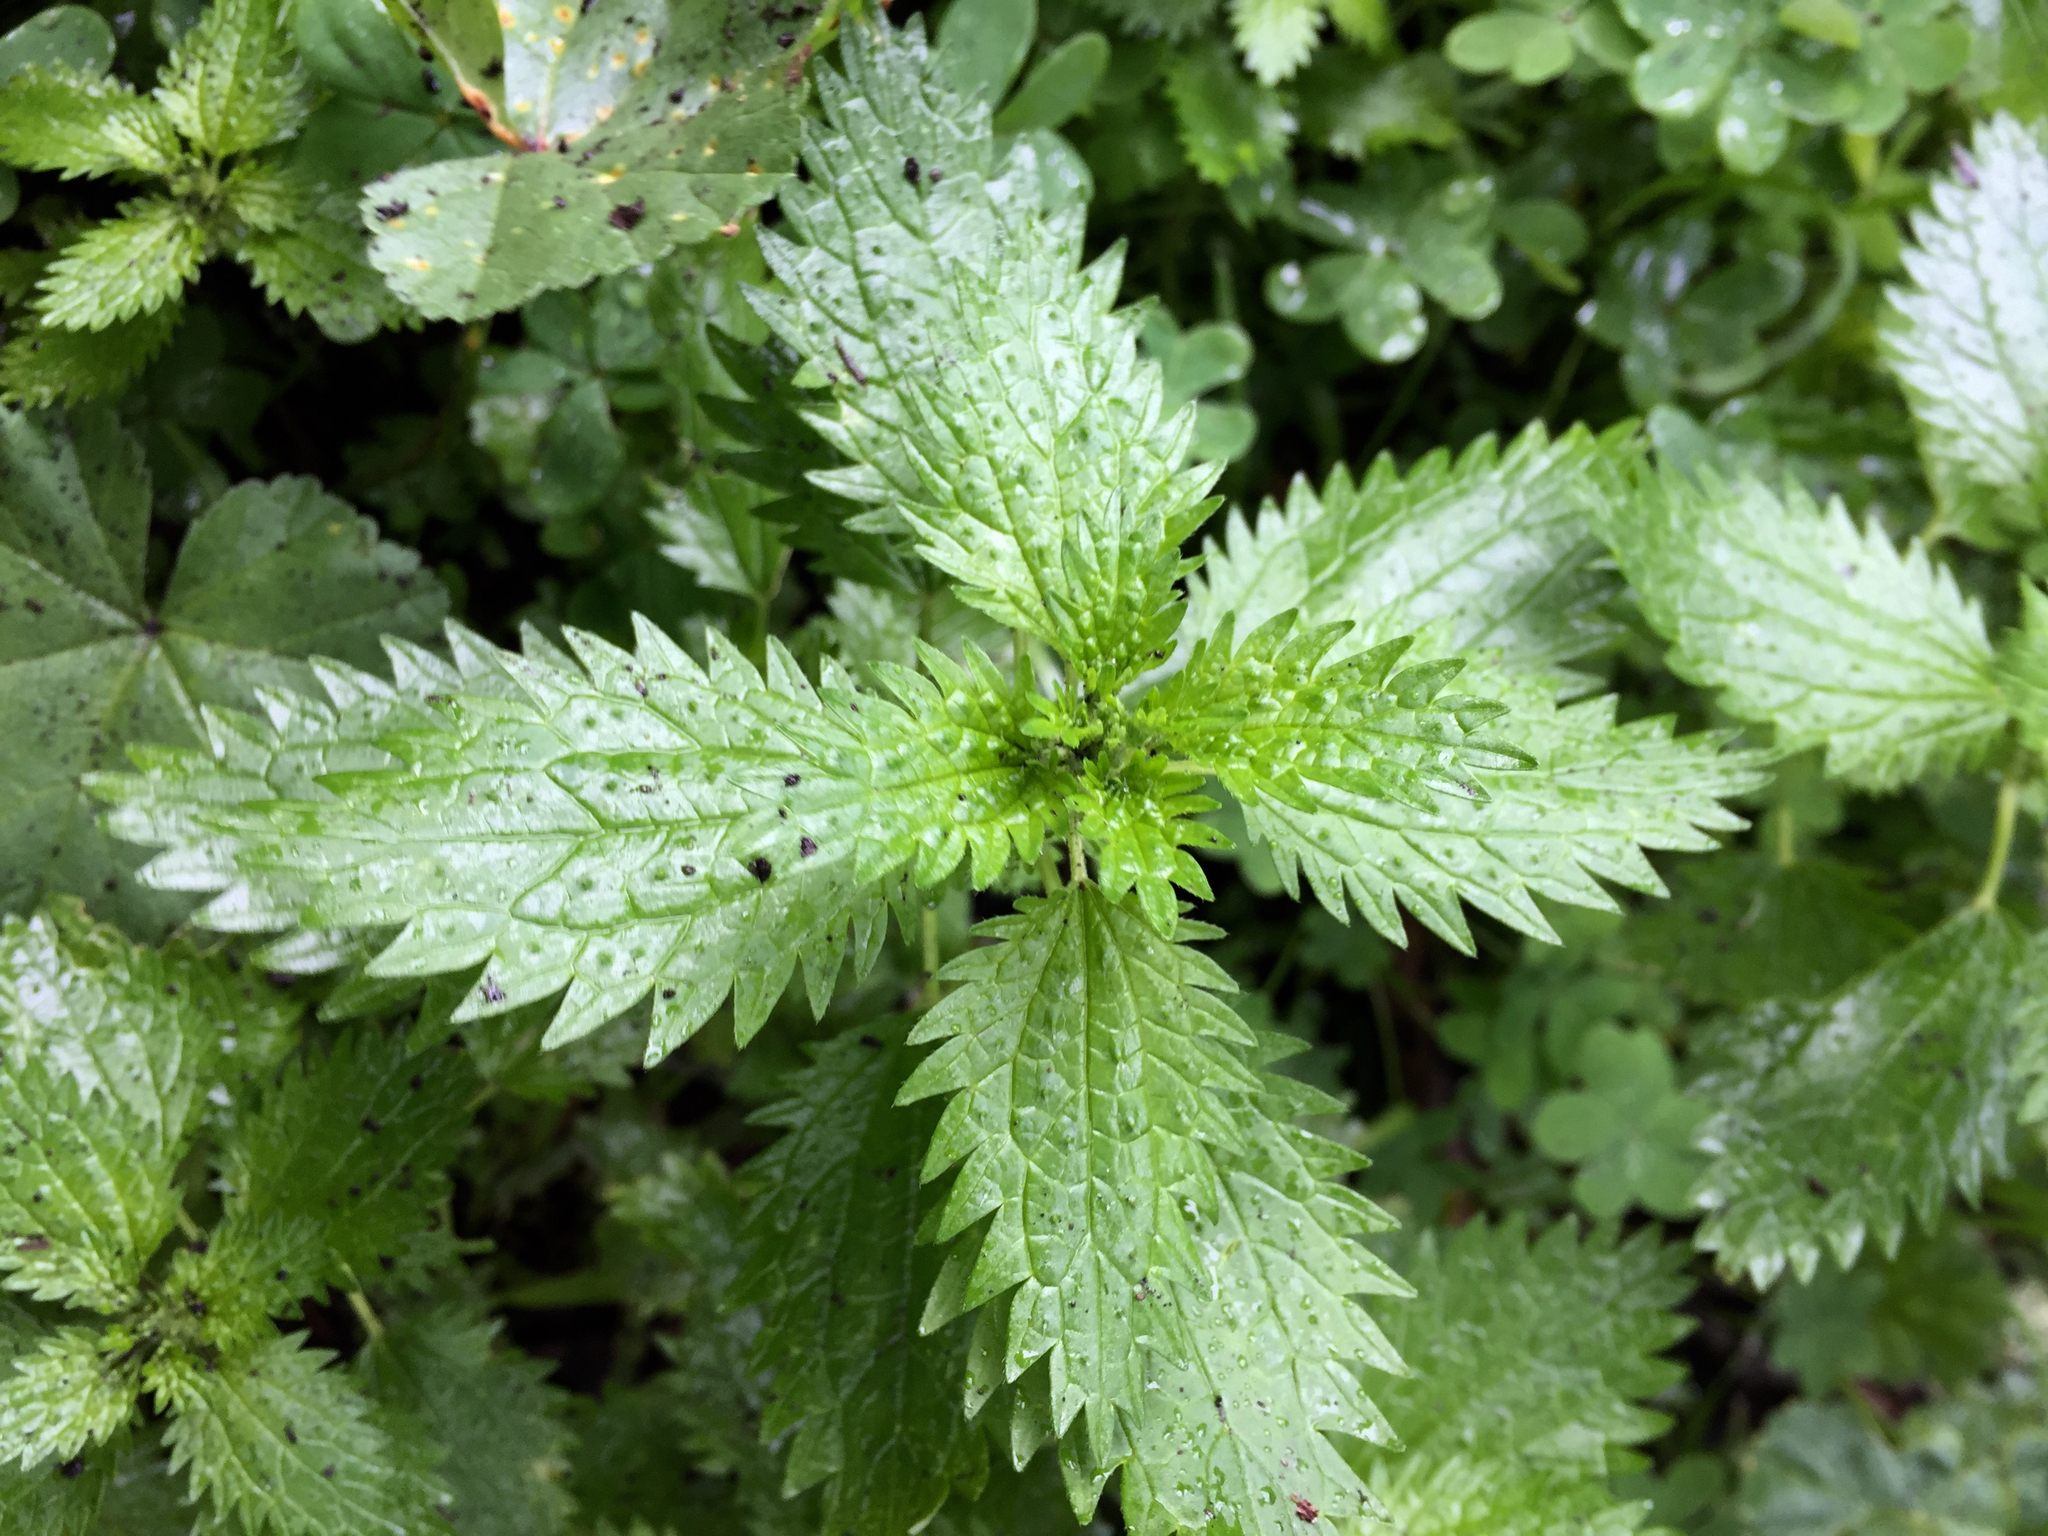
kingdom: Plantae
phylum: Tracheophyta
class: Magnoliopsida
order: Rosales
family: Urticaceae
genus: Urtica
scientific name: Urtica urens
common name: Dwarf nettle
